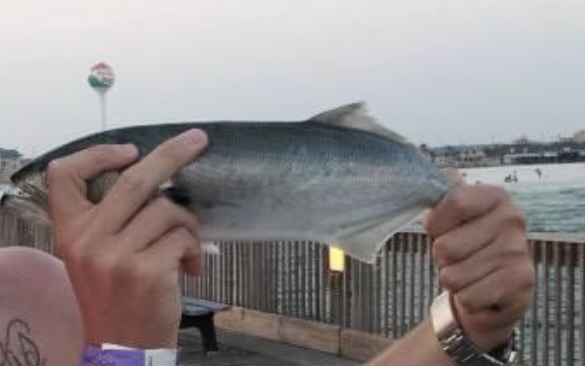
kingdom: Animalia
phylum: Chordata
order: Perciformes
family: Pomatomidae
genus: Pomatomus
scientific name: Pomatomus saltatrix
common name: Bluefish
